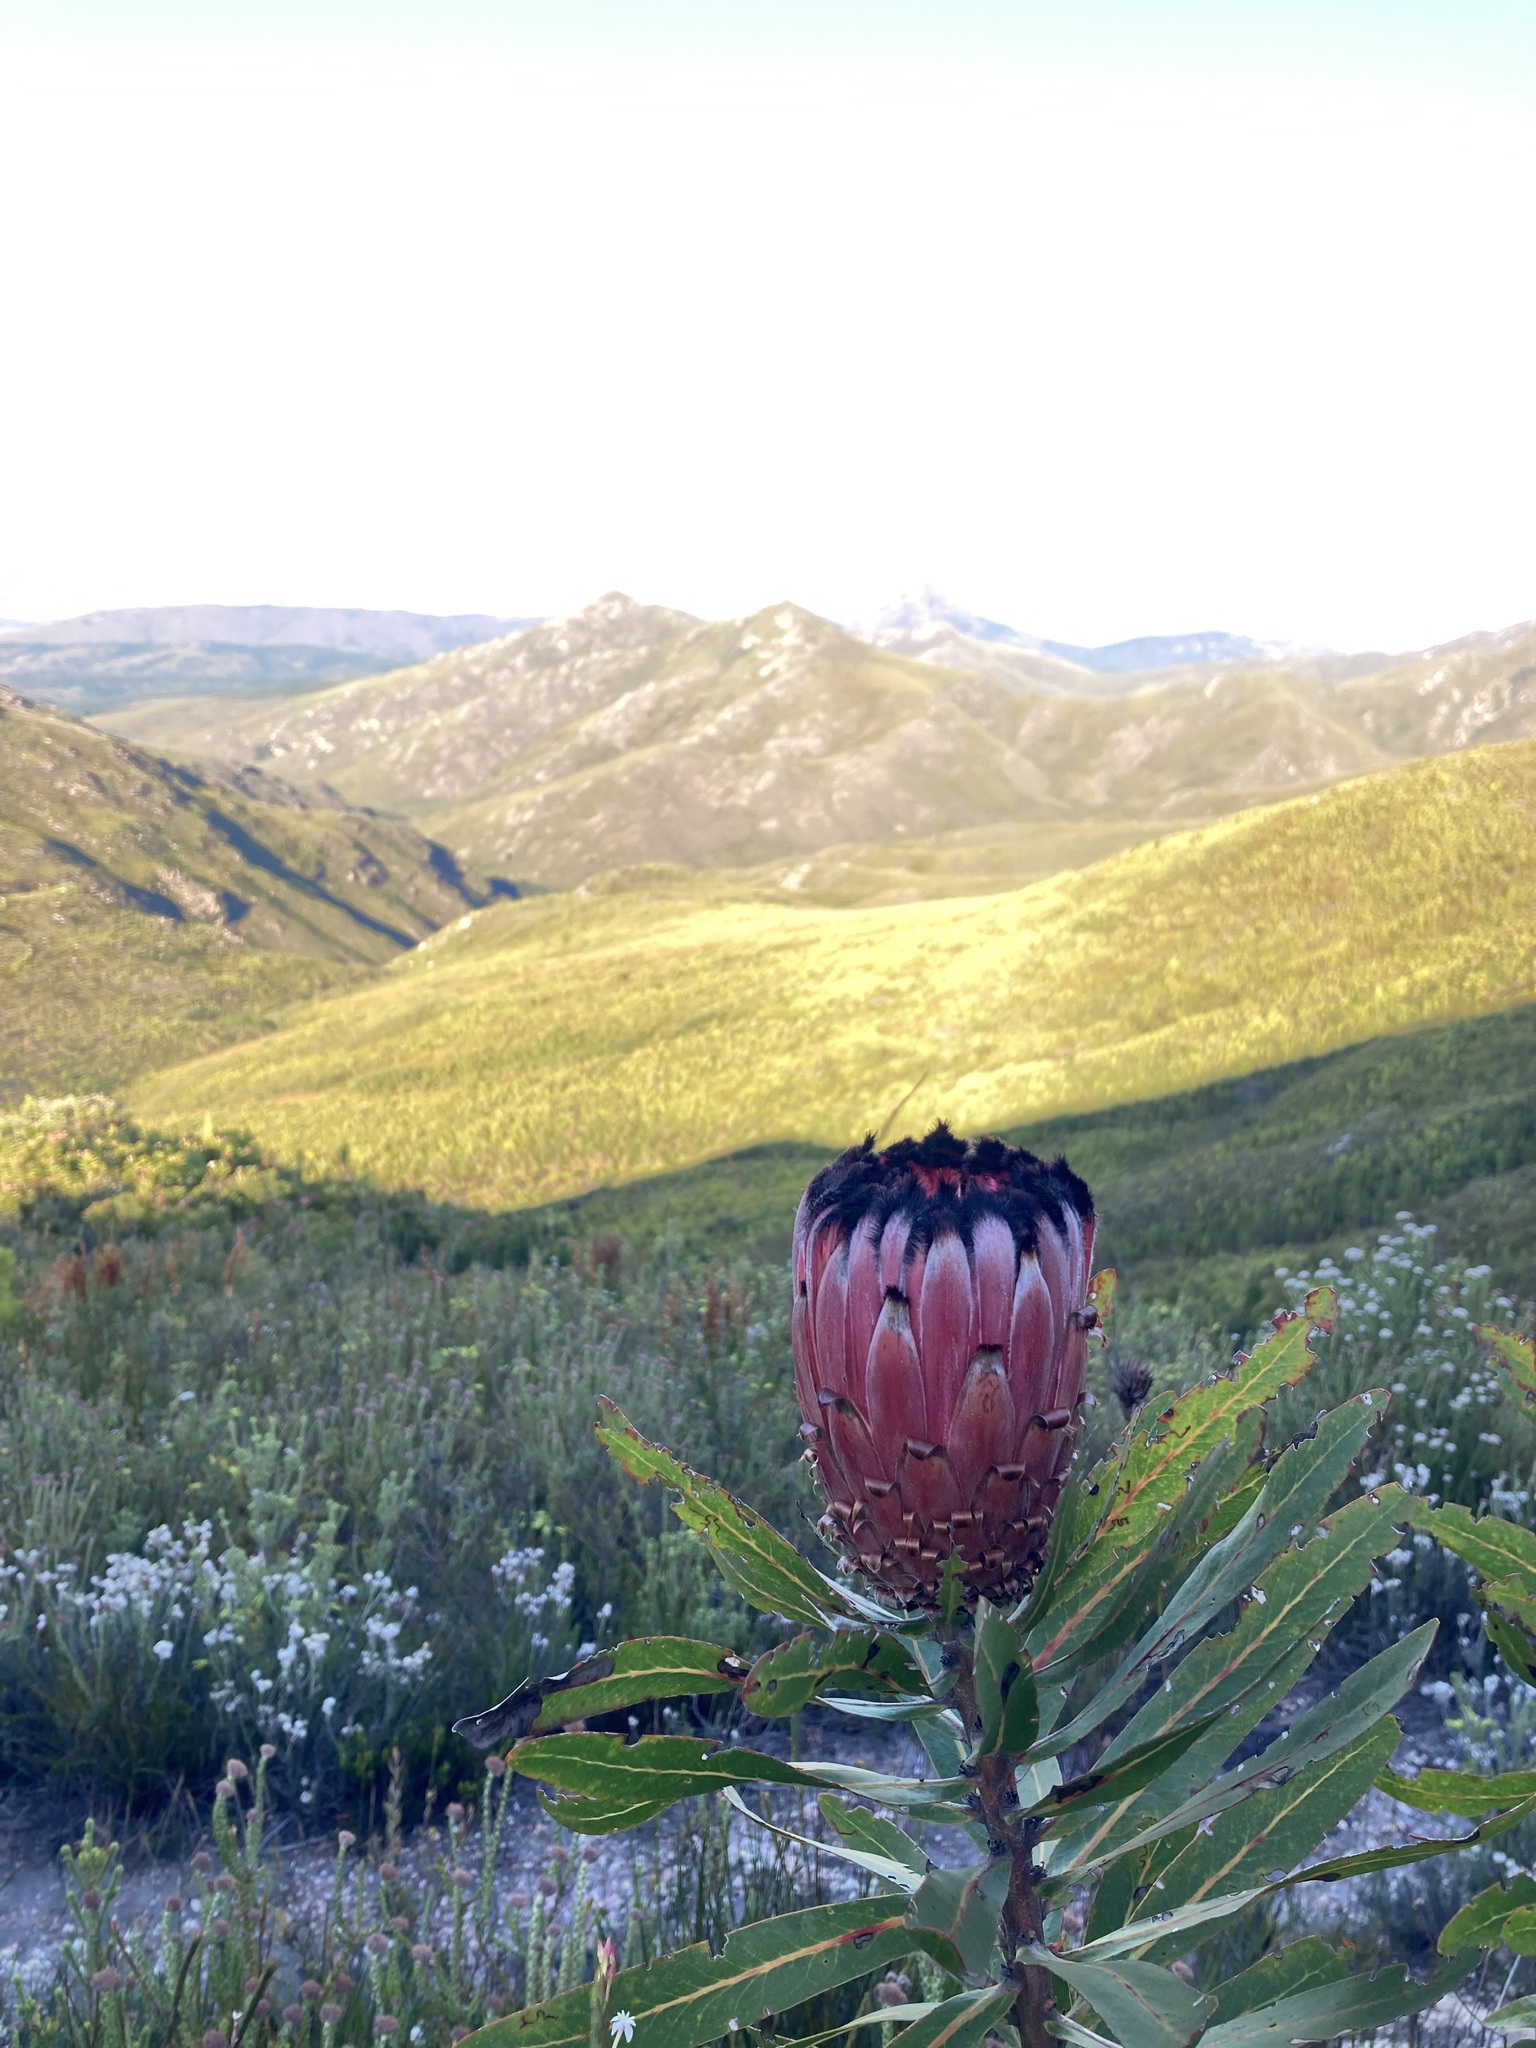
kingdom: Plantae
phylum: Tracheophyta
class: Magnoliopsida
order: Proteales
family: Proteaceae
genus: Protea
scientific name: Protea neriifolia
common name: Blue sugarbush
